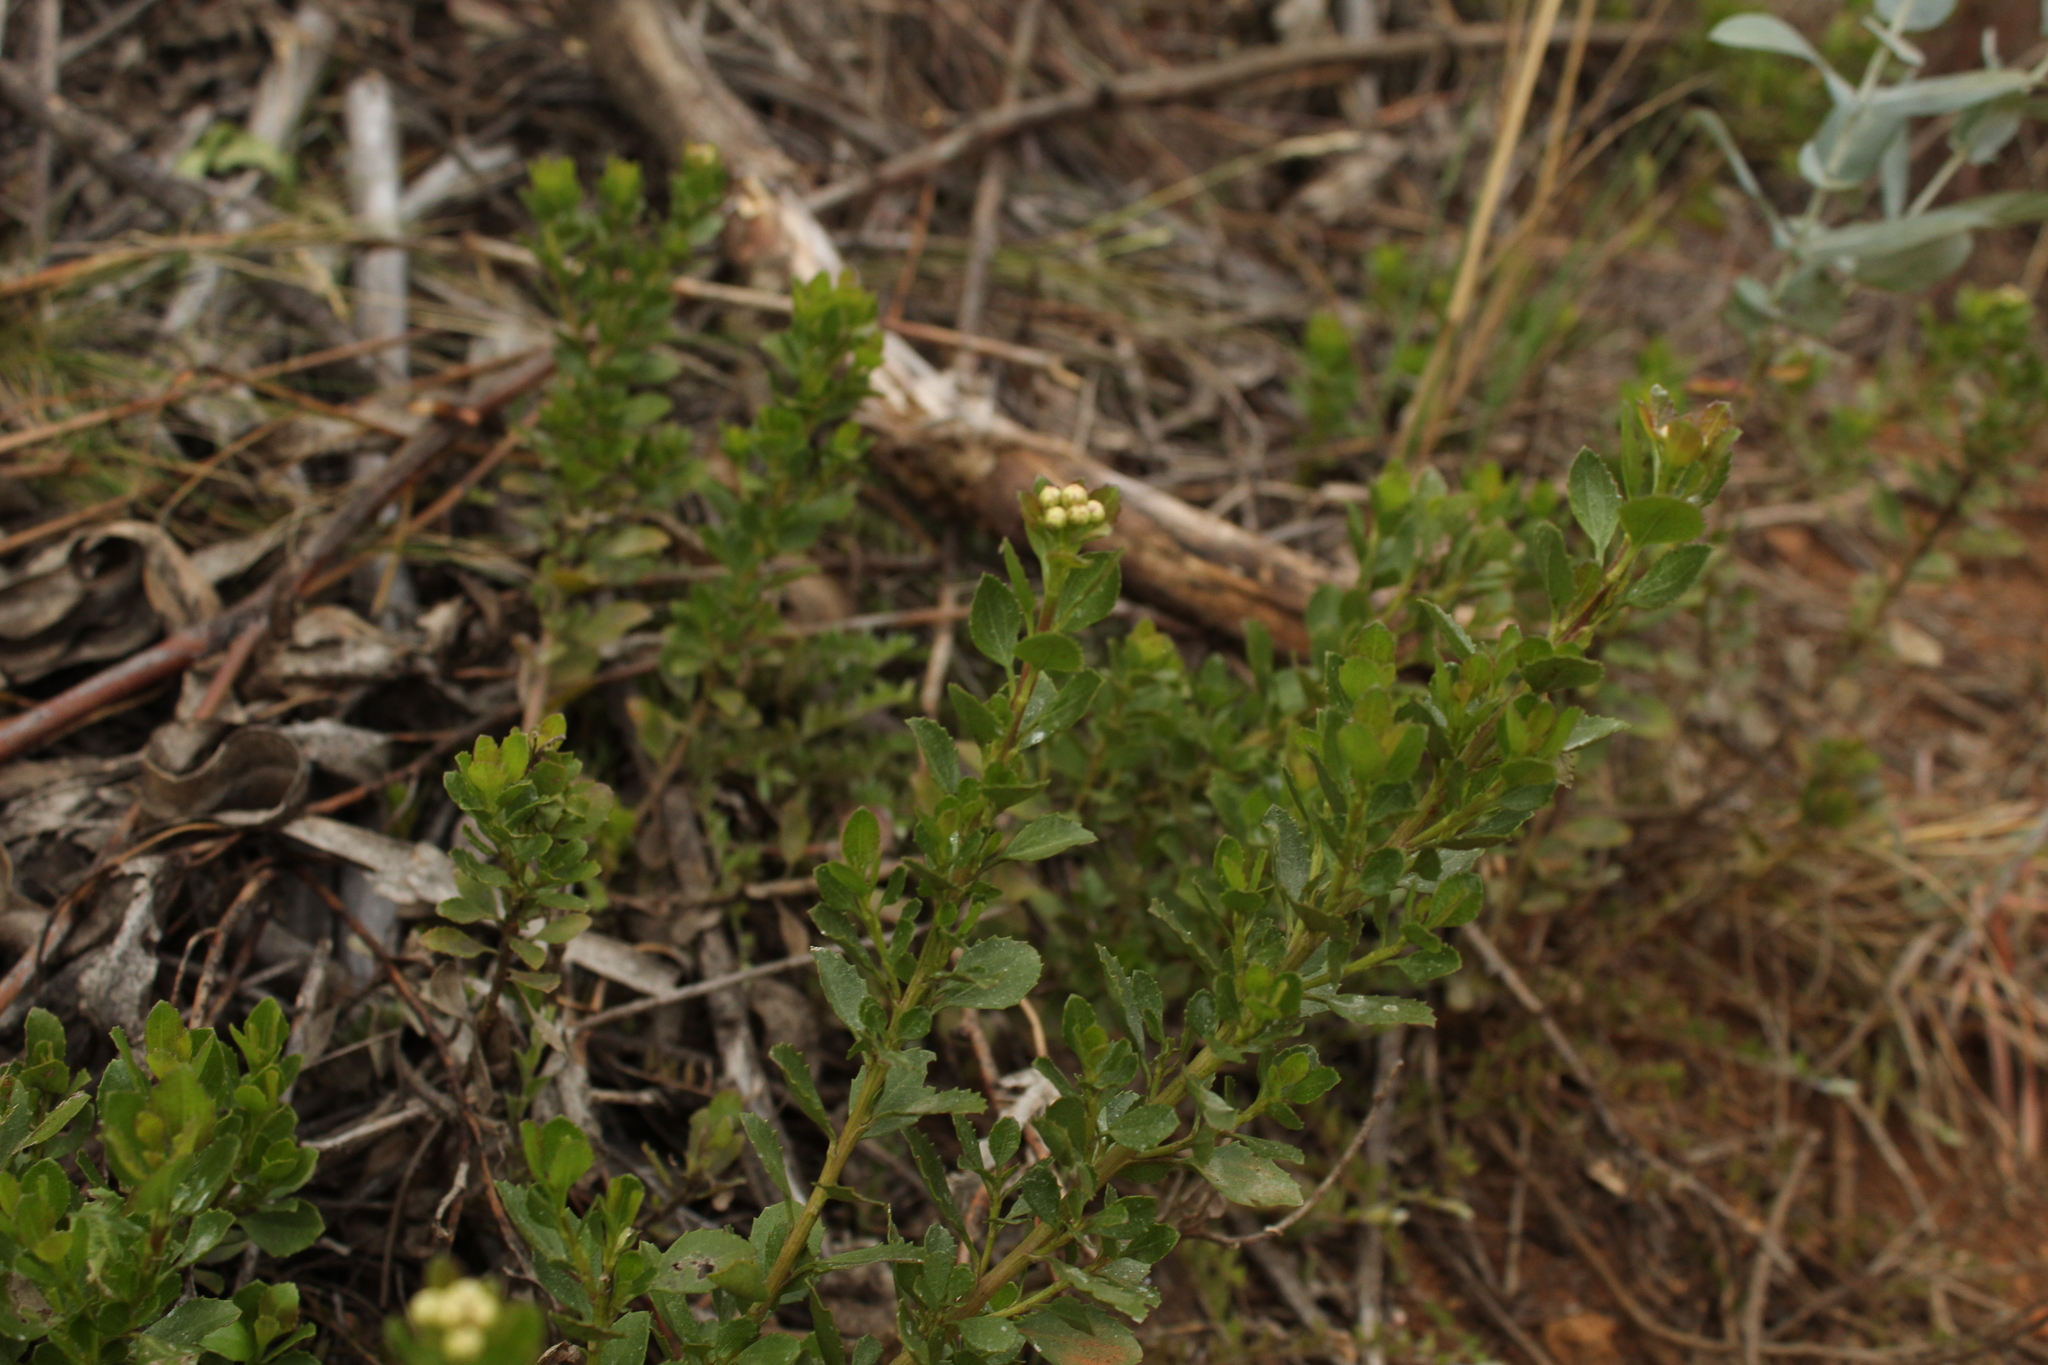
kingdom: Plantae
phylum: Tracheophyta
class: Magnoliopsida
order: Asterales
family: Asteraceae
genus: Baccharis
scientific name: Baccharis rupicola
